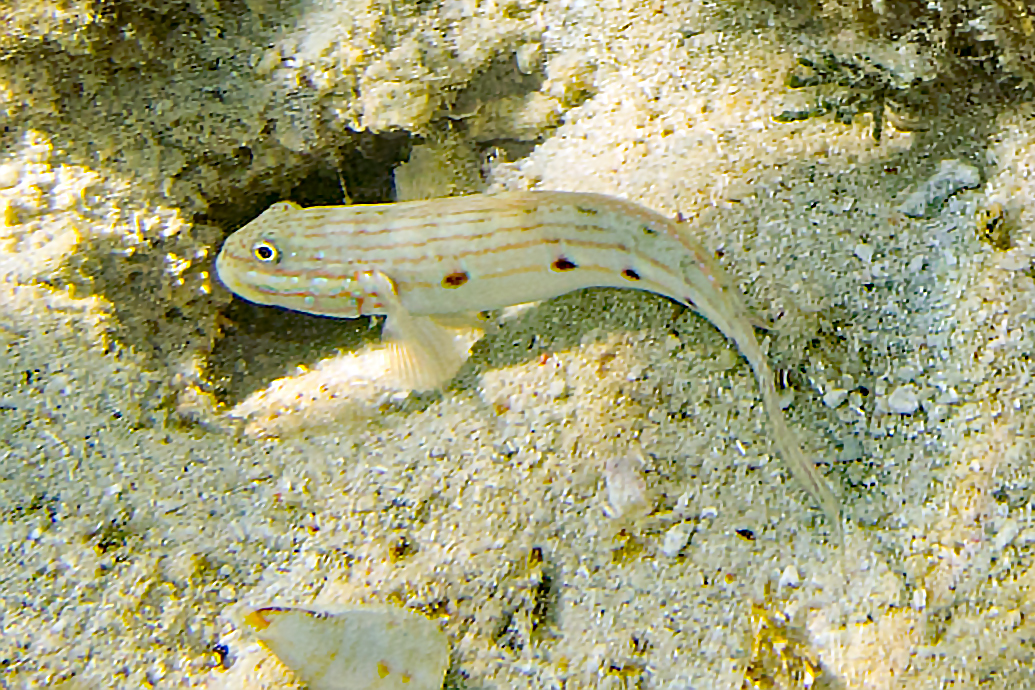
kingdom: Animalia
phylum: Chordata
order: Perciformes
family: Gobiidae
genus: Valenciennea
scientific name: Valenciennea longipinnis
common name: Longfinned goby
